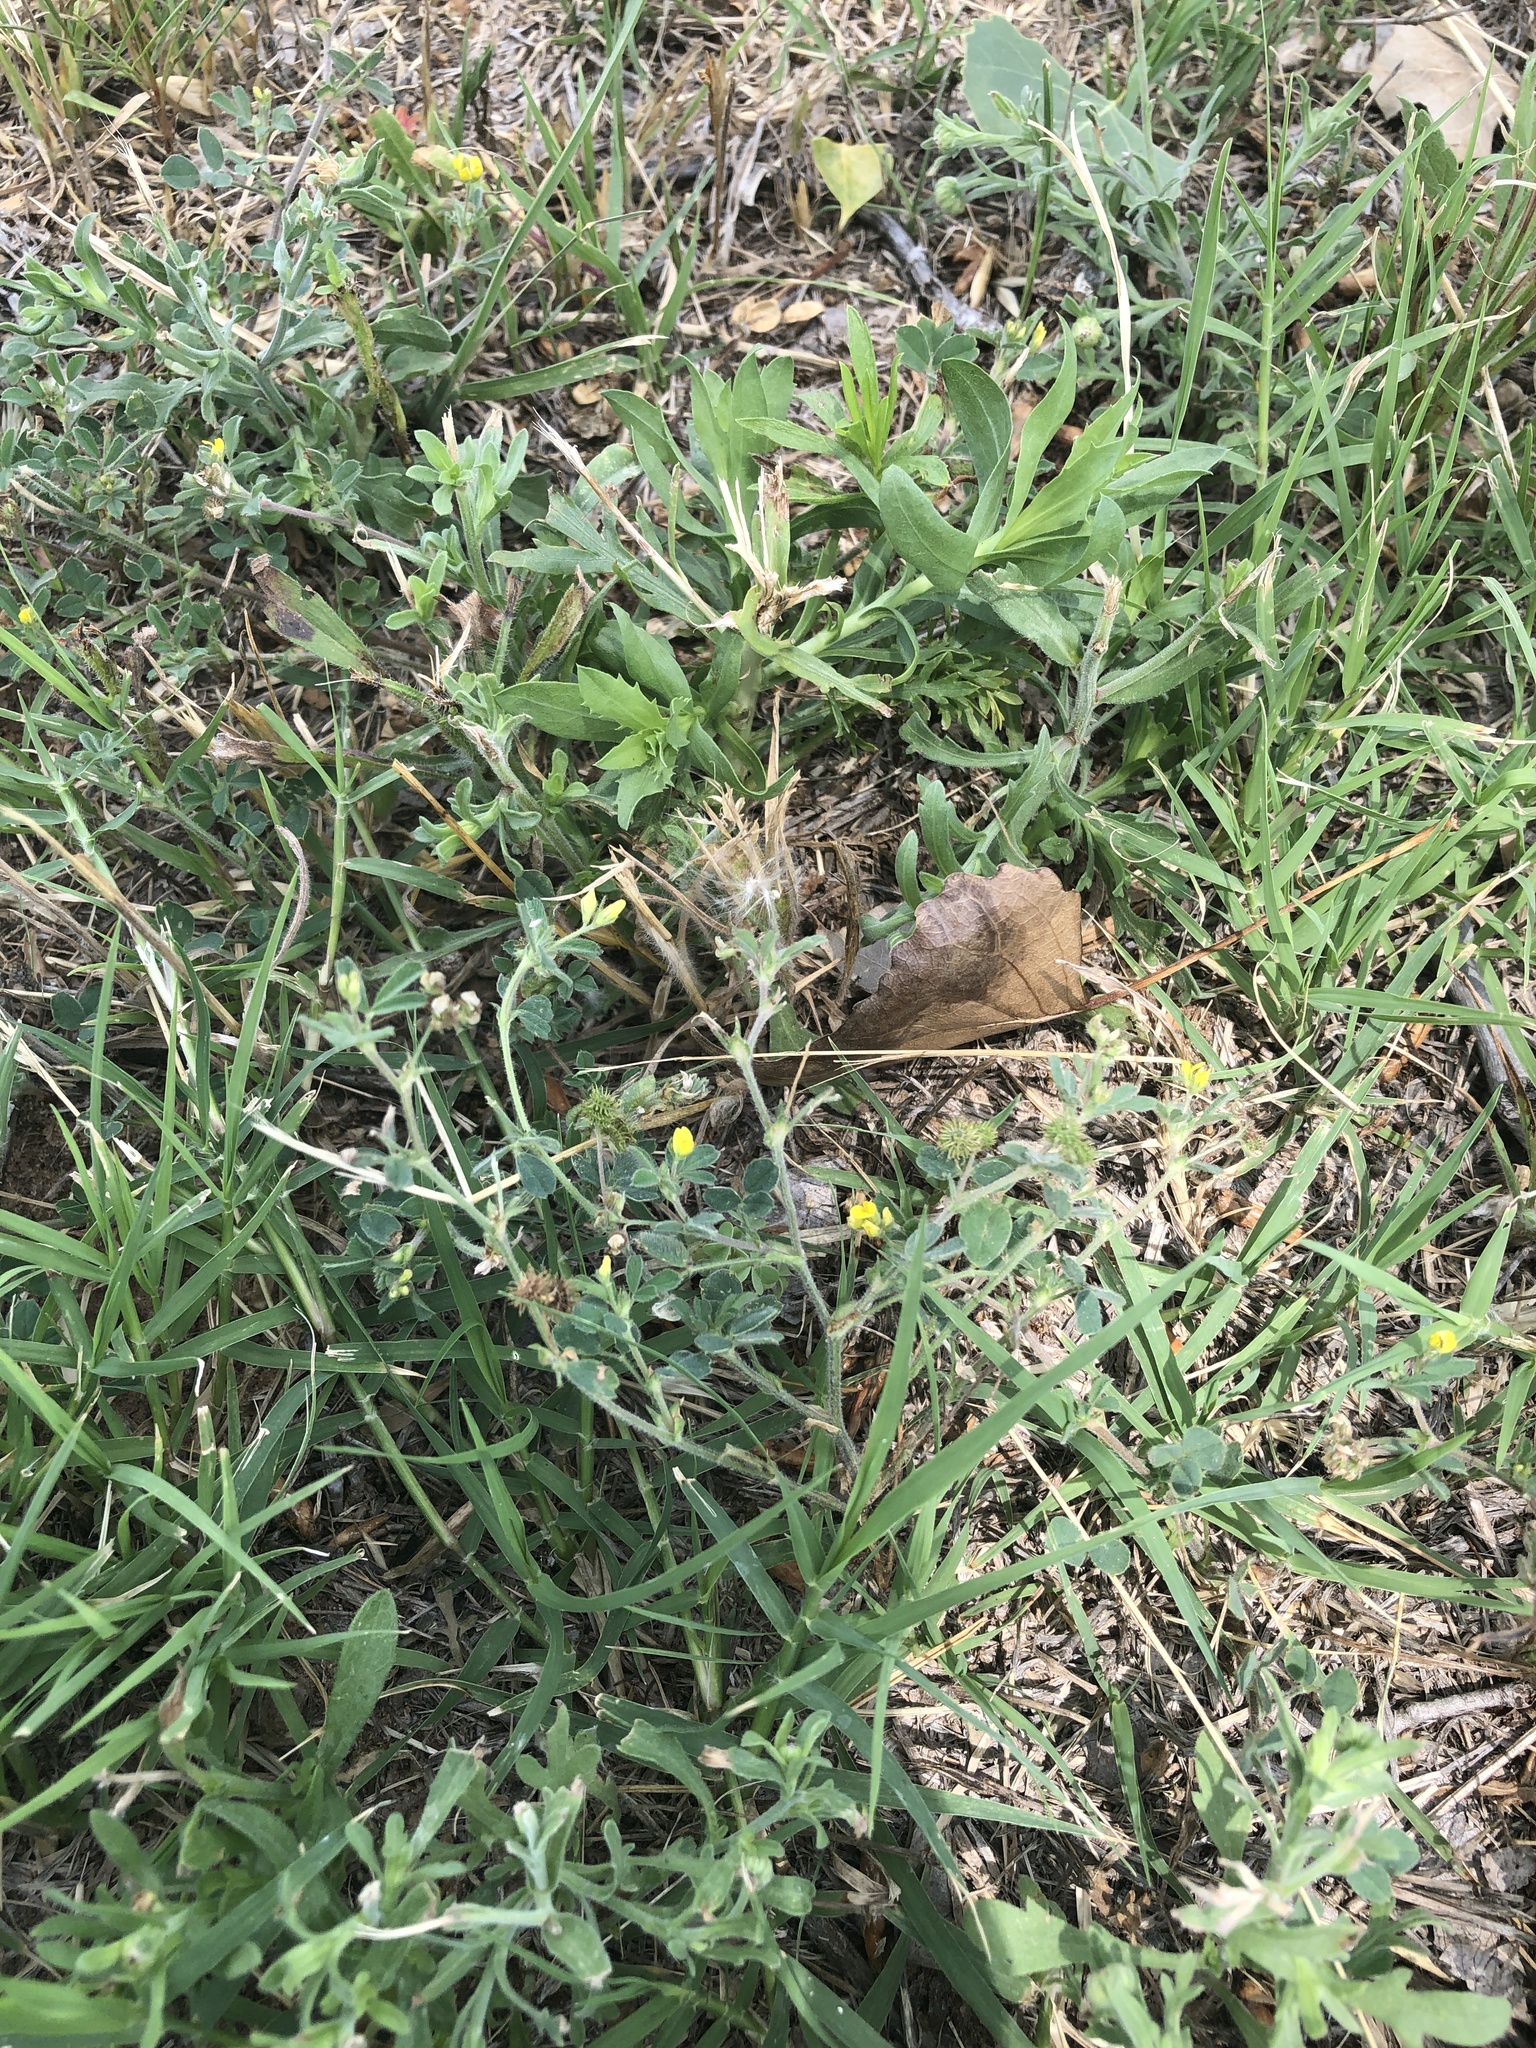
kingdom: Plantae
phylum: Tracheophyta
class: Magnoliopsida
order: Fabales
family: Fabaceae
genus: Medicago
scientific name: Medicago minima
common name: Little bur-clover
